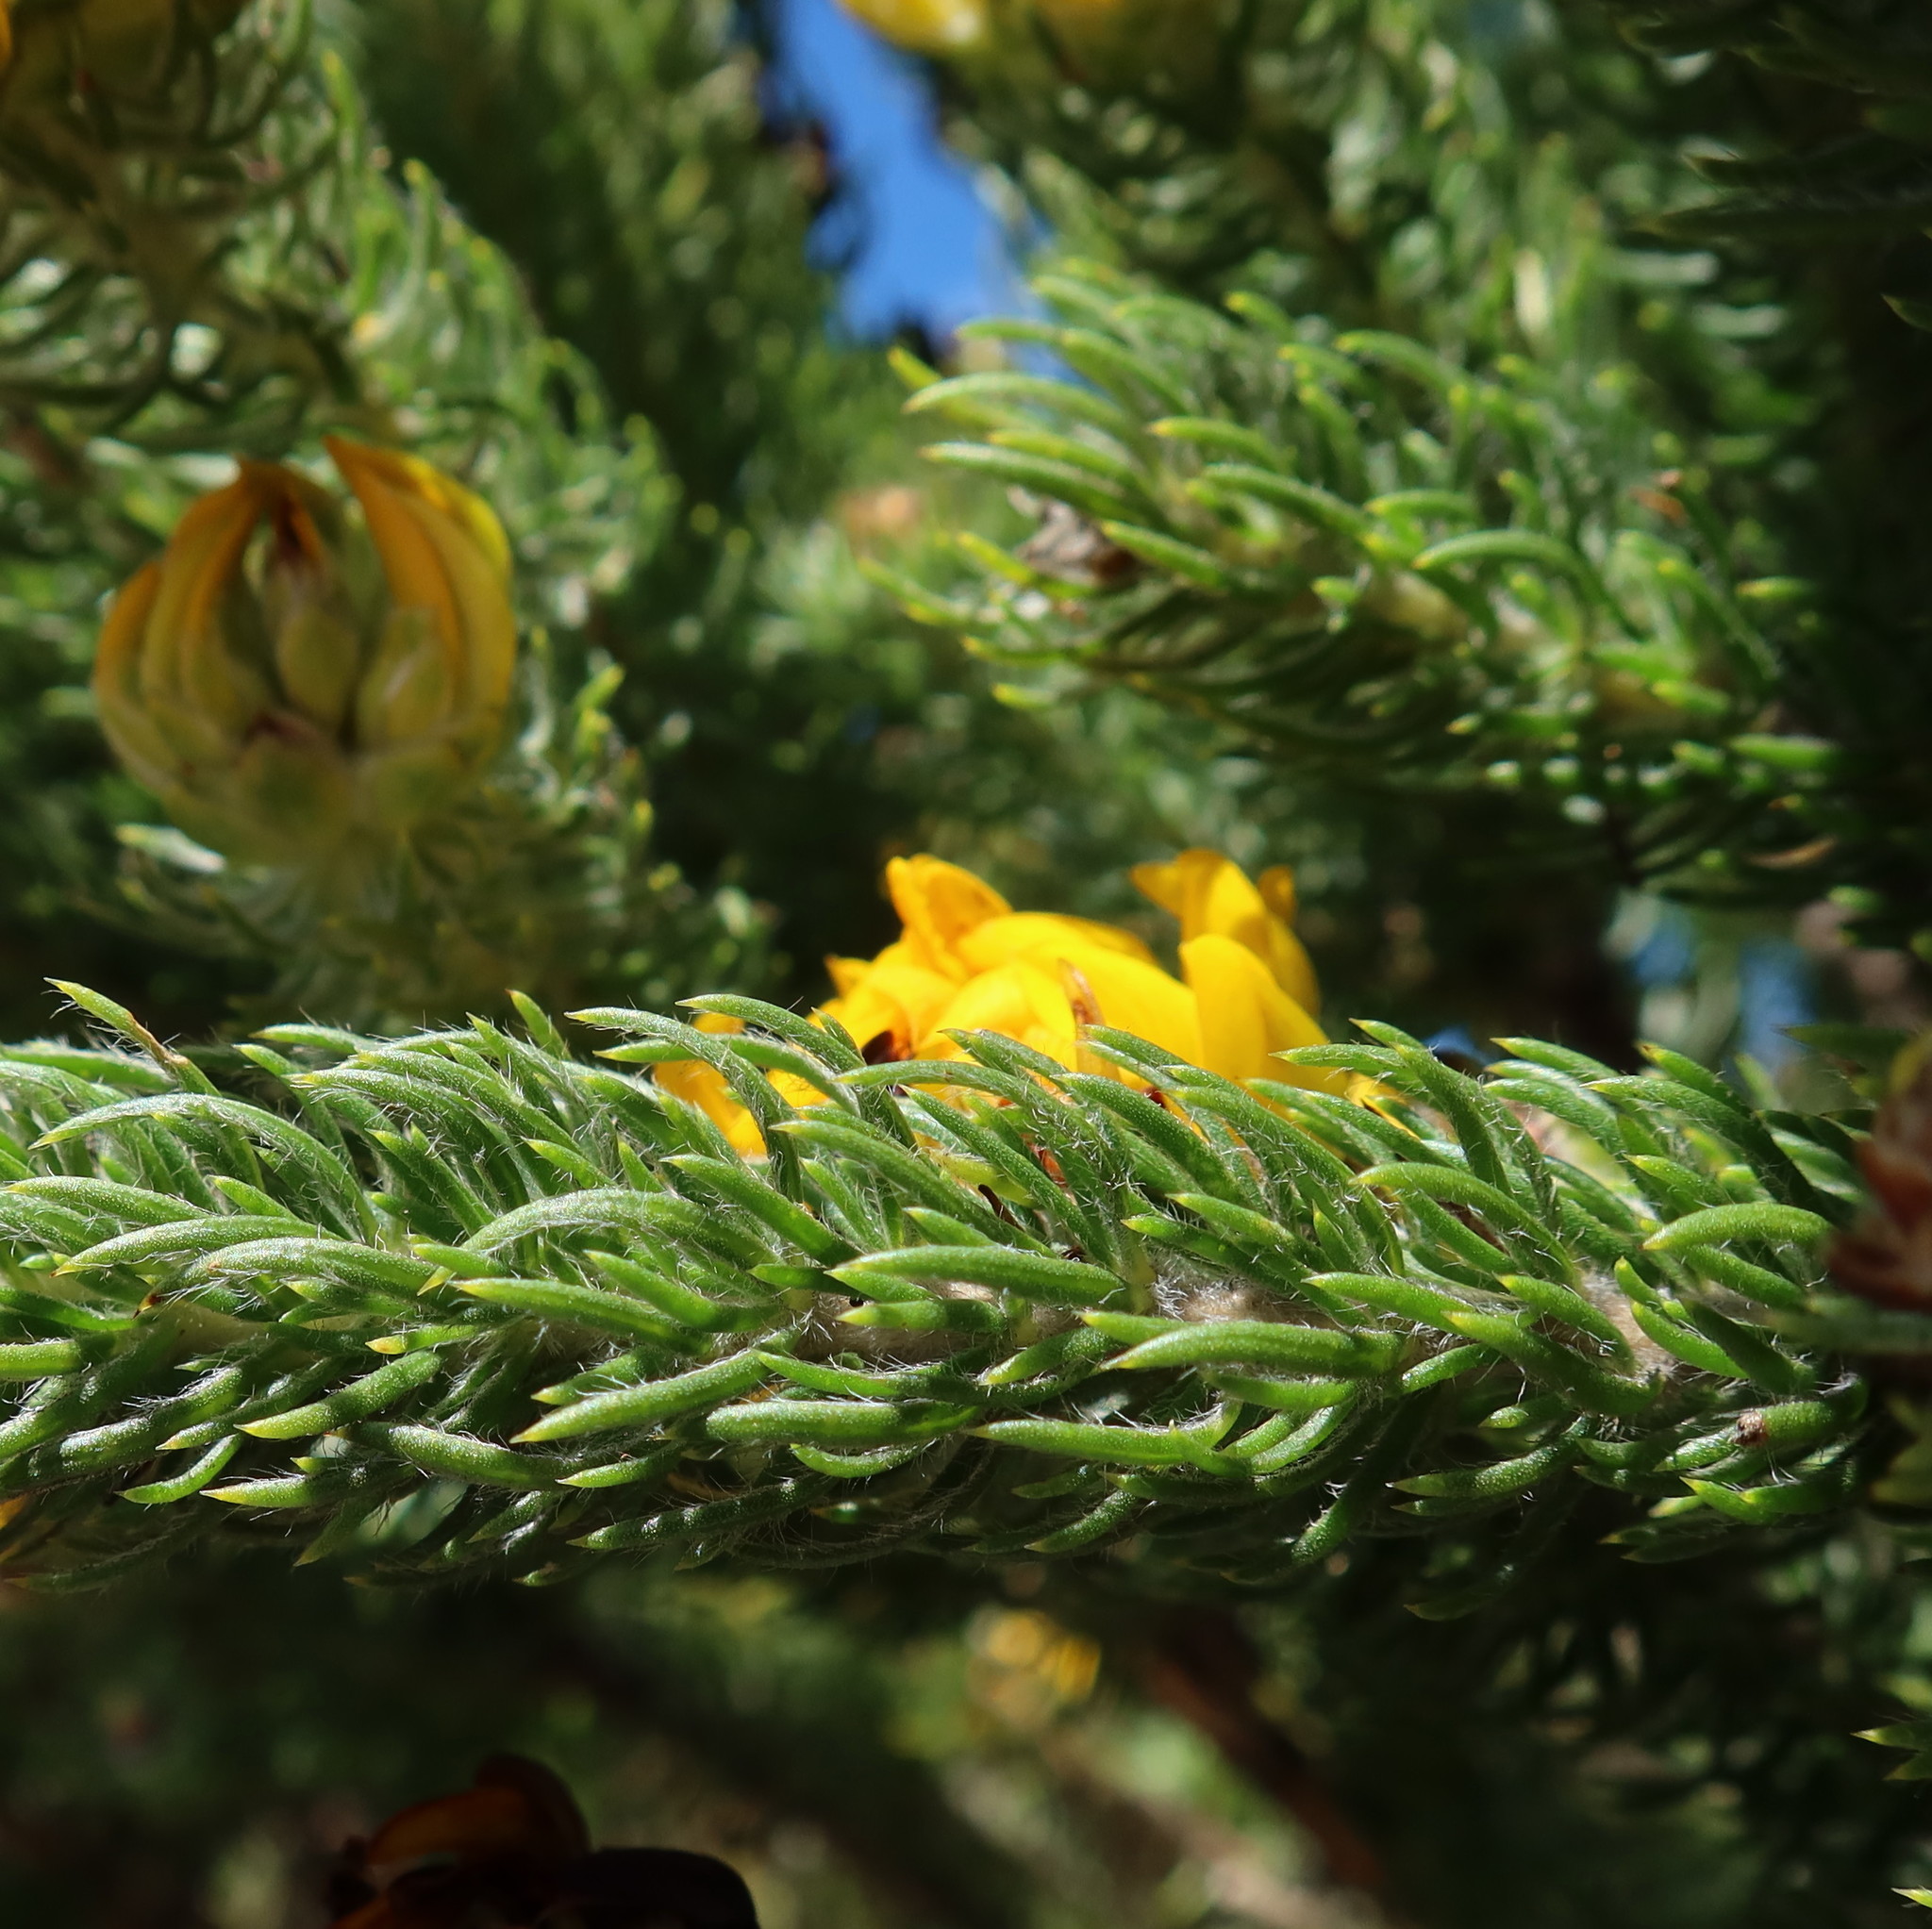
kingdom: Plantae
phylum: Tracheophyta
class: Magnoliopsida
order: Fabales
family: Fabaceae
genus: Aspalathus
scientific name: Aspalathus capitata
